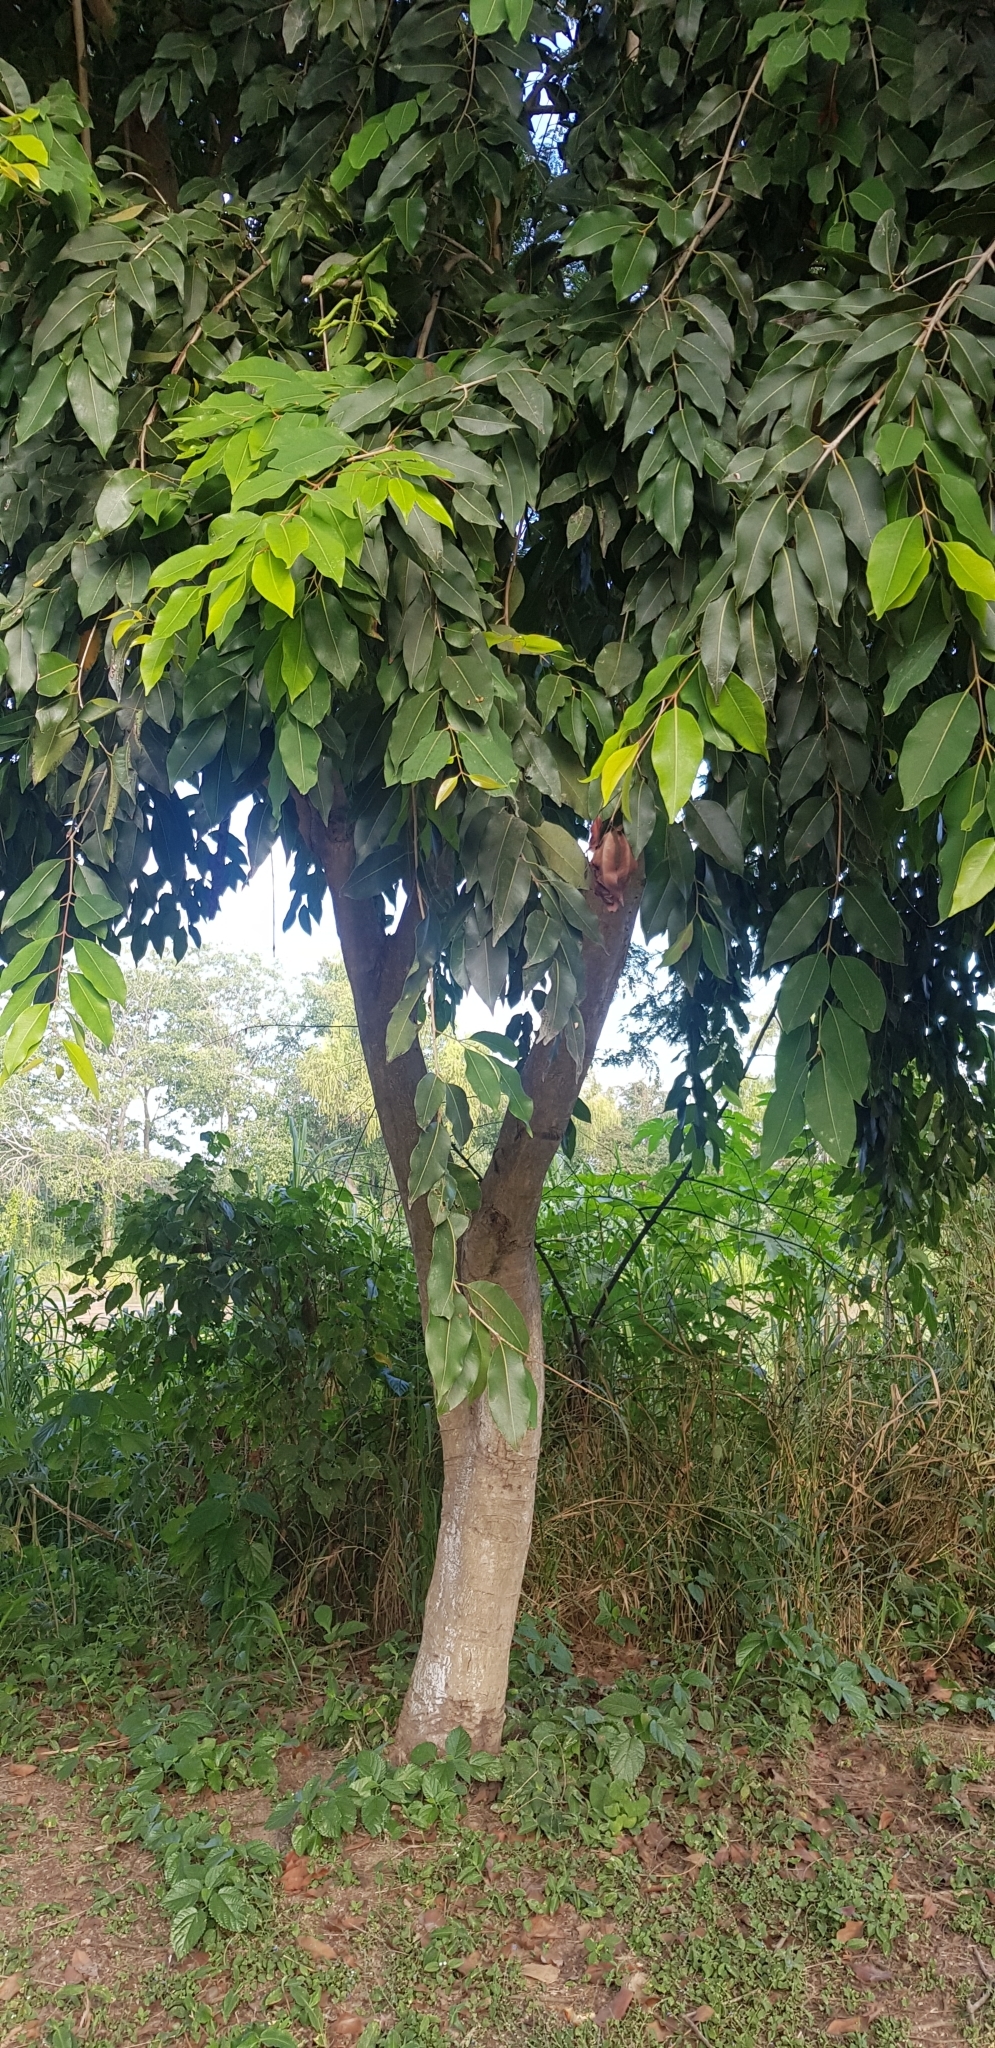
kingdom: Plantae
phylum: Tracheophyta
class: Magnoliopsida
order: Myrtales
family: Myrtaceae
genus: Syzygium
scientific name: Syzygium cumini
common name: Java plum
